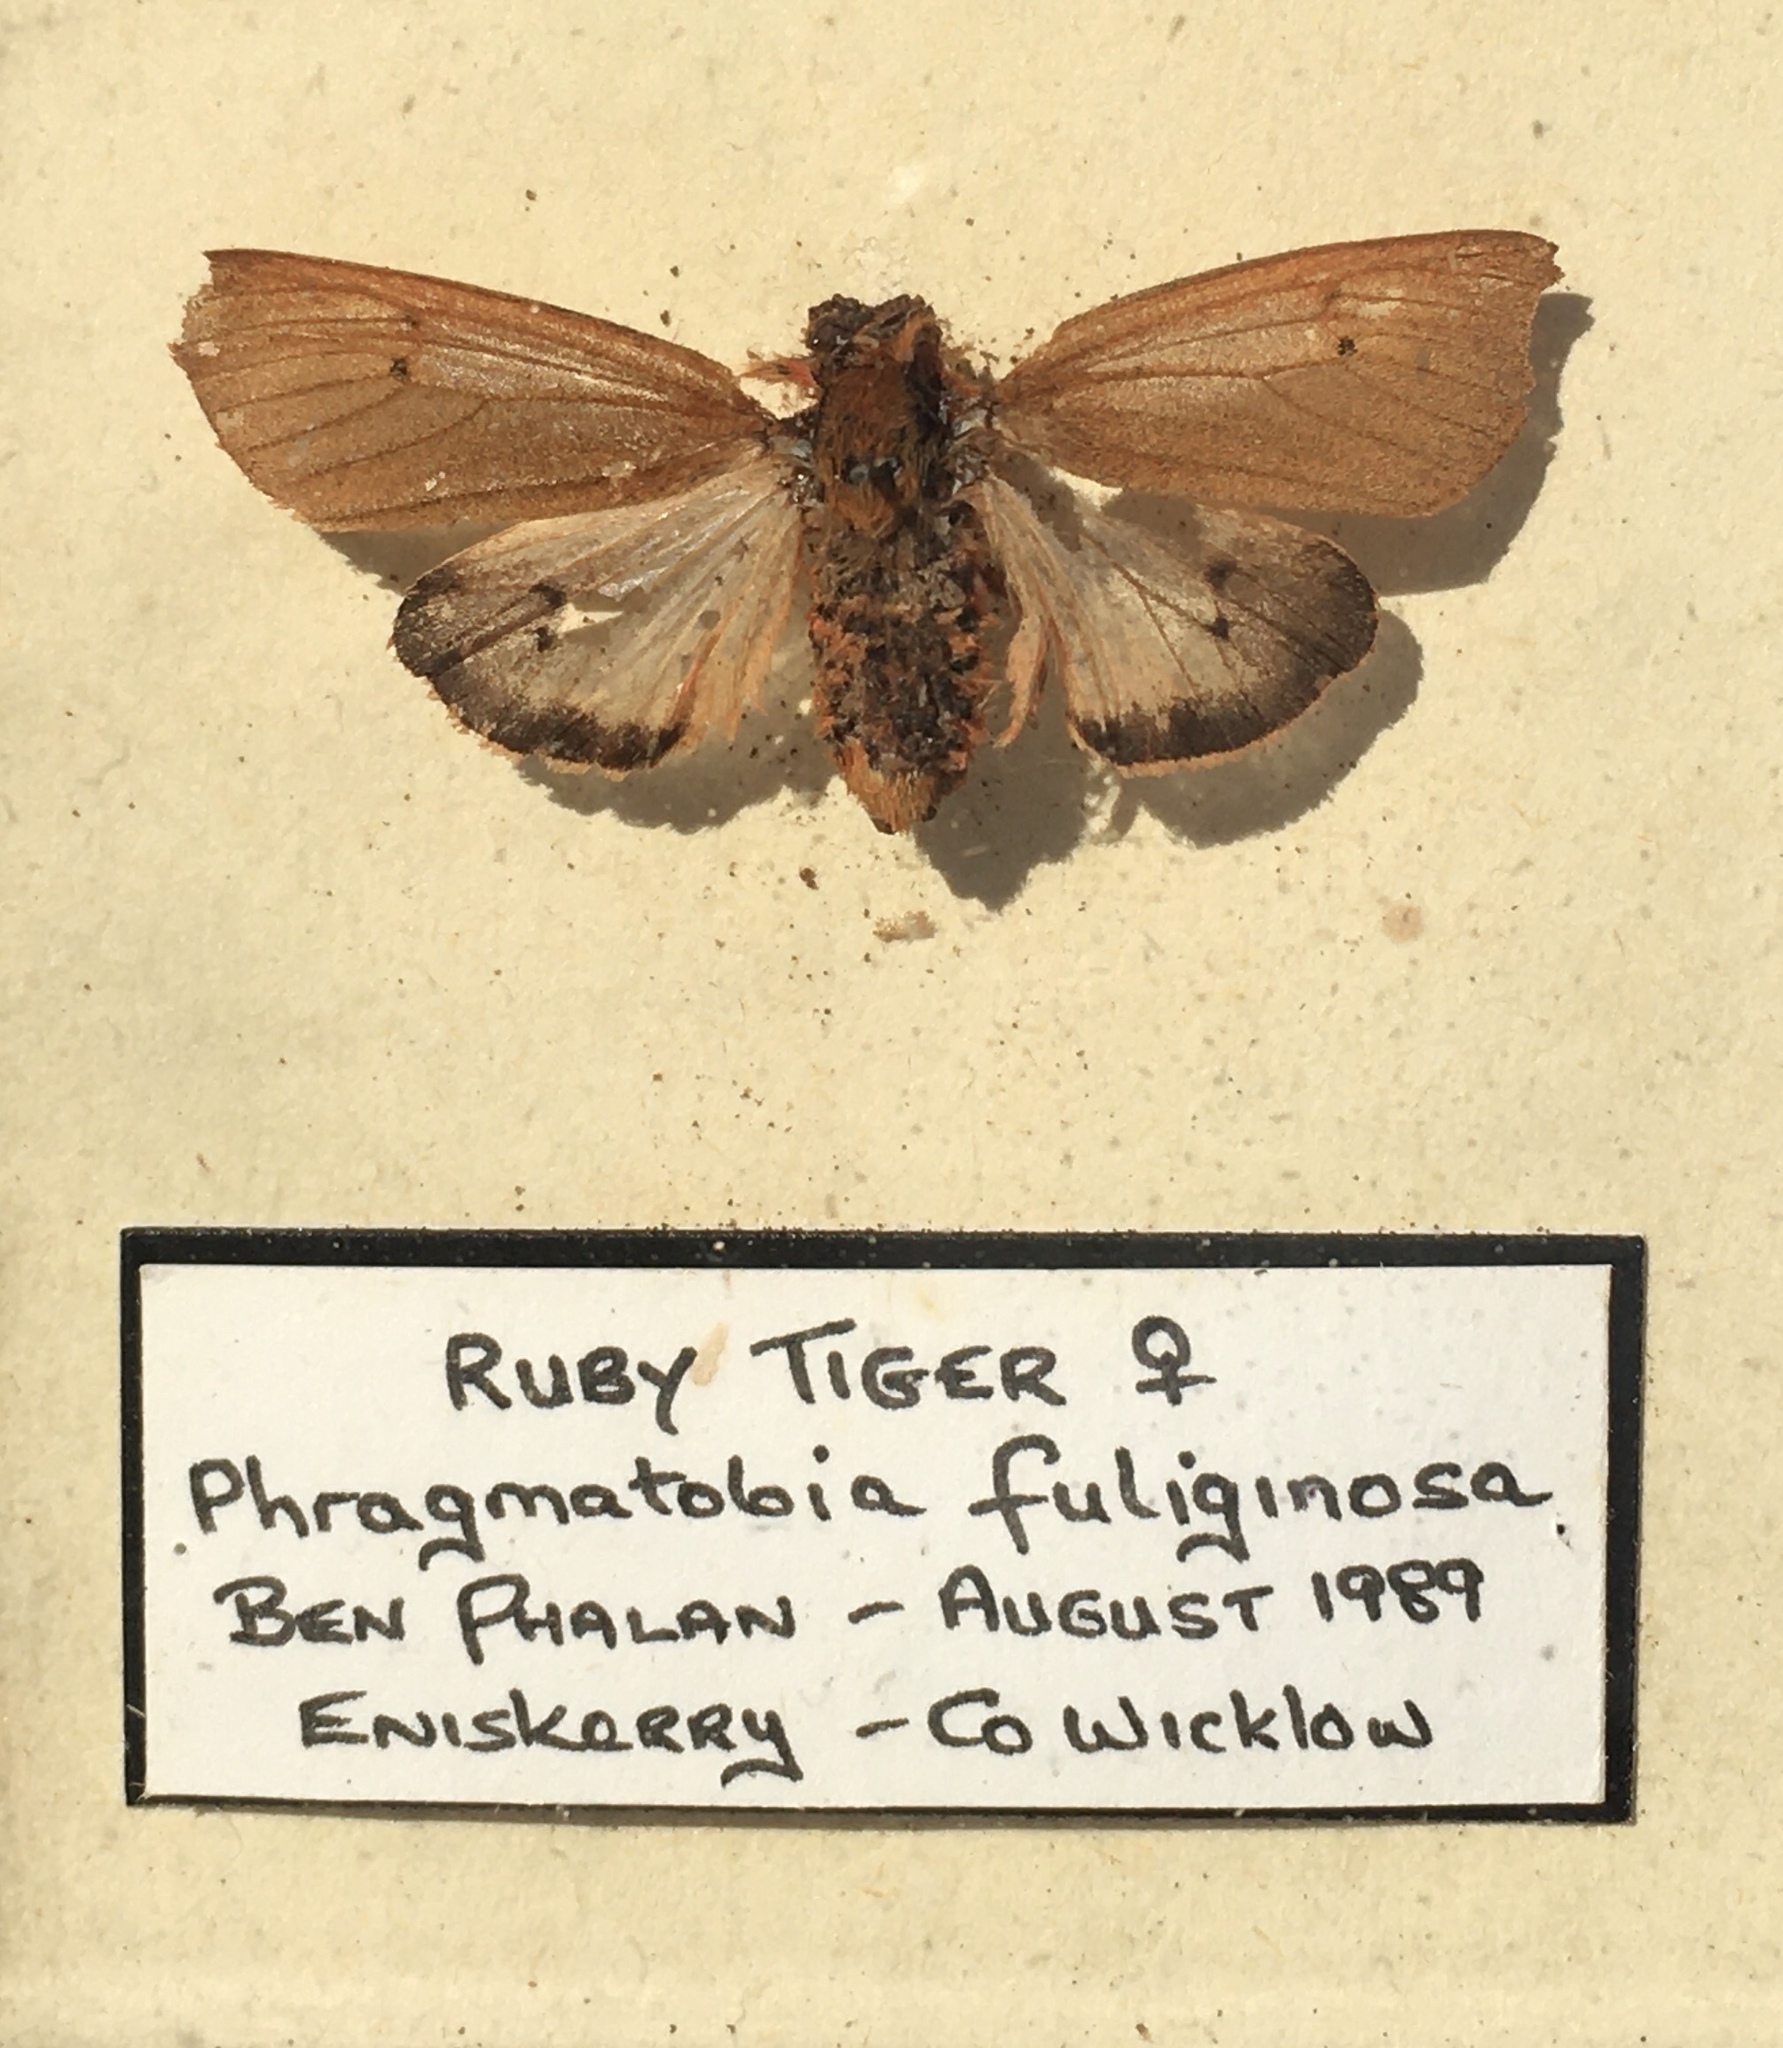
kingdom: Animalia
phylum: Arthropoda
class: Insecta
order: Lepidoptera
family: Erebidae
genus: Phragmatobia
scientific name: Phragmatobia fuliginosa
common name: Ruby tiger
